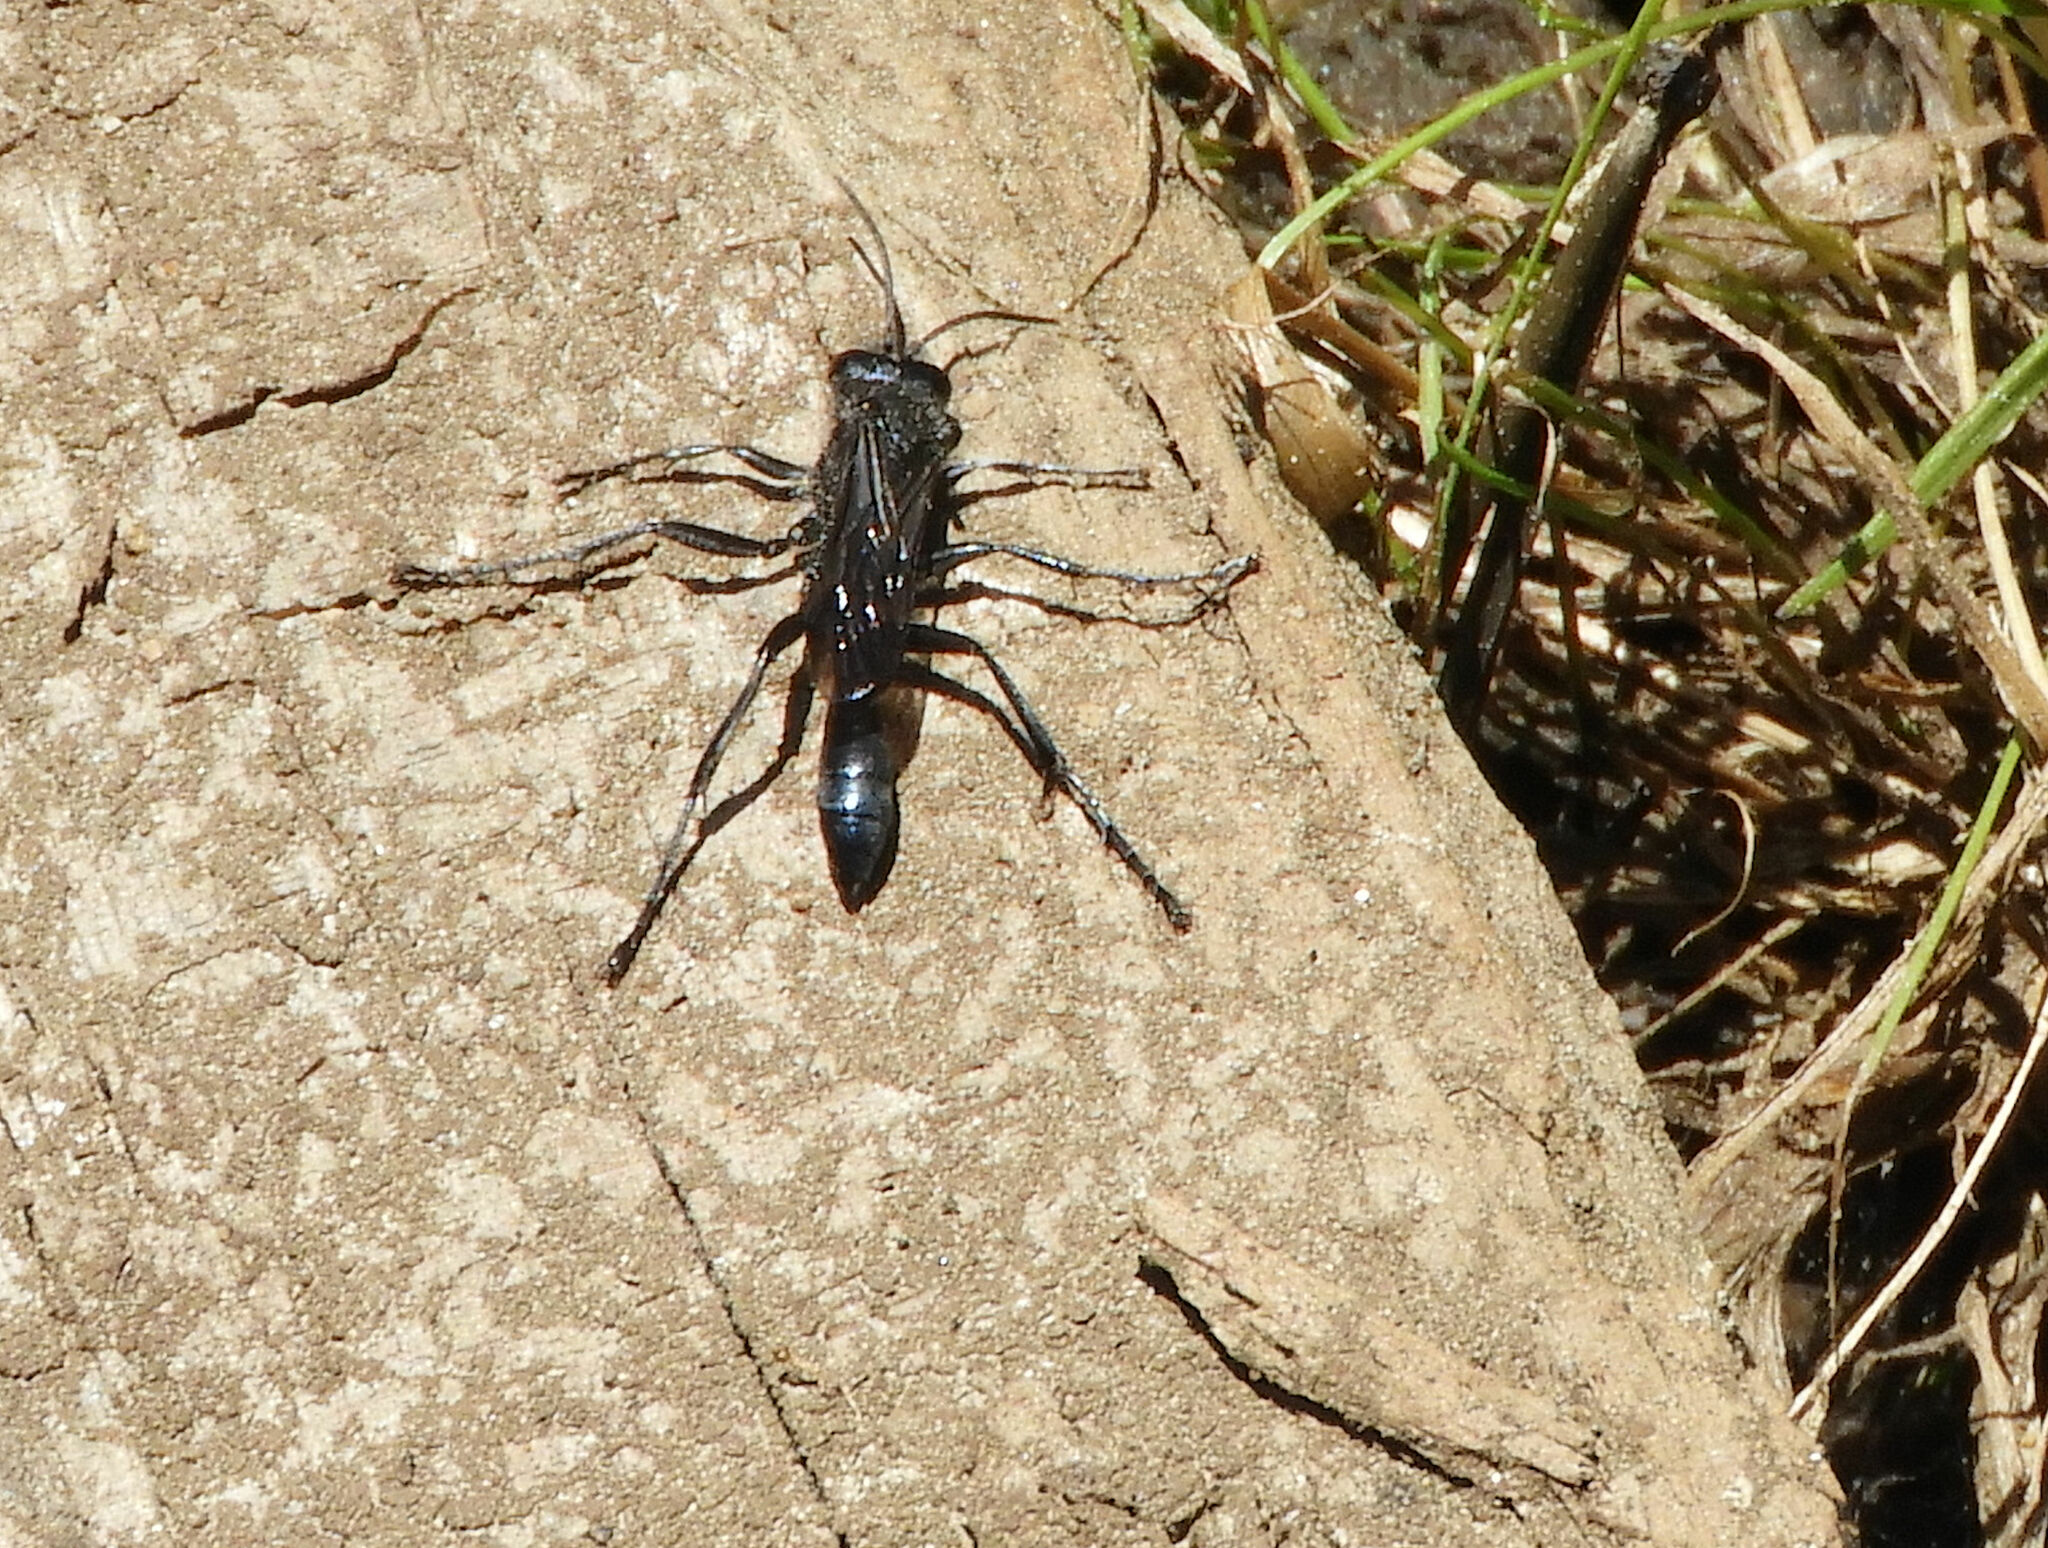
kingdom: Animalia
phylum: Arthropoda
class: Insecta
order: Hymenoptera
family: Sphecidae
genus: Podalonia
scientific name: Podalonia
